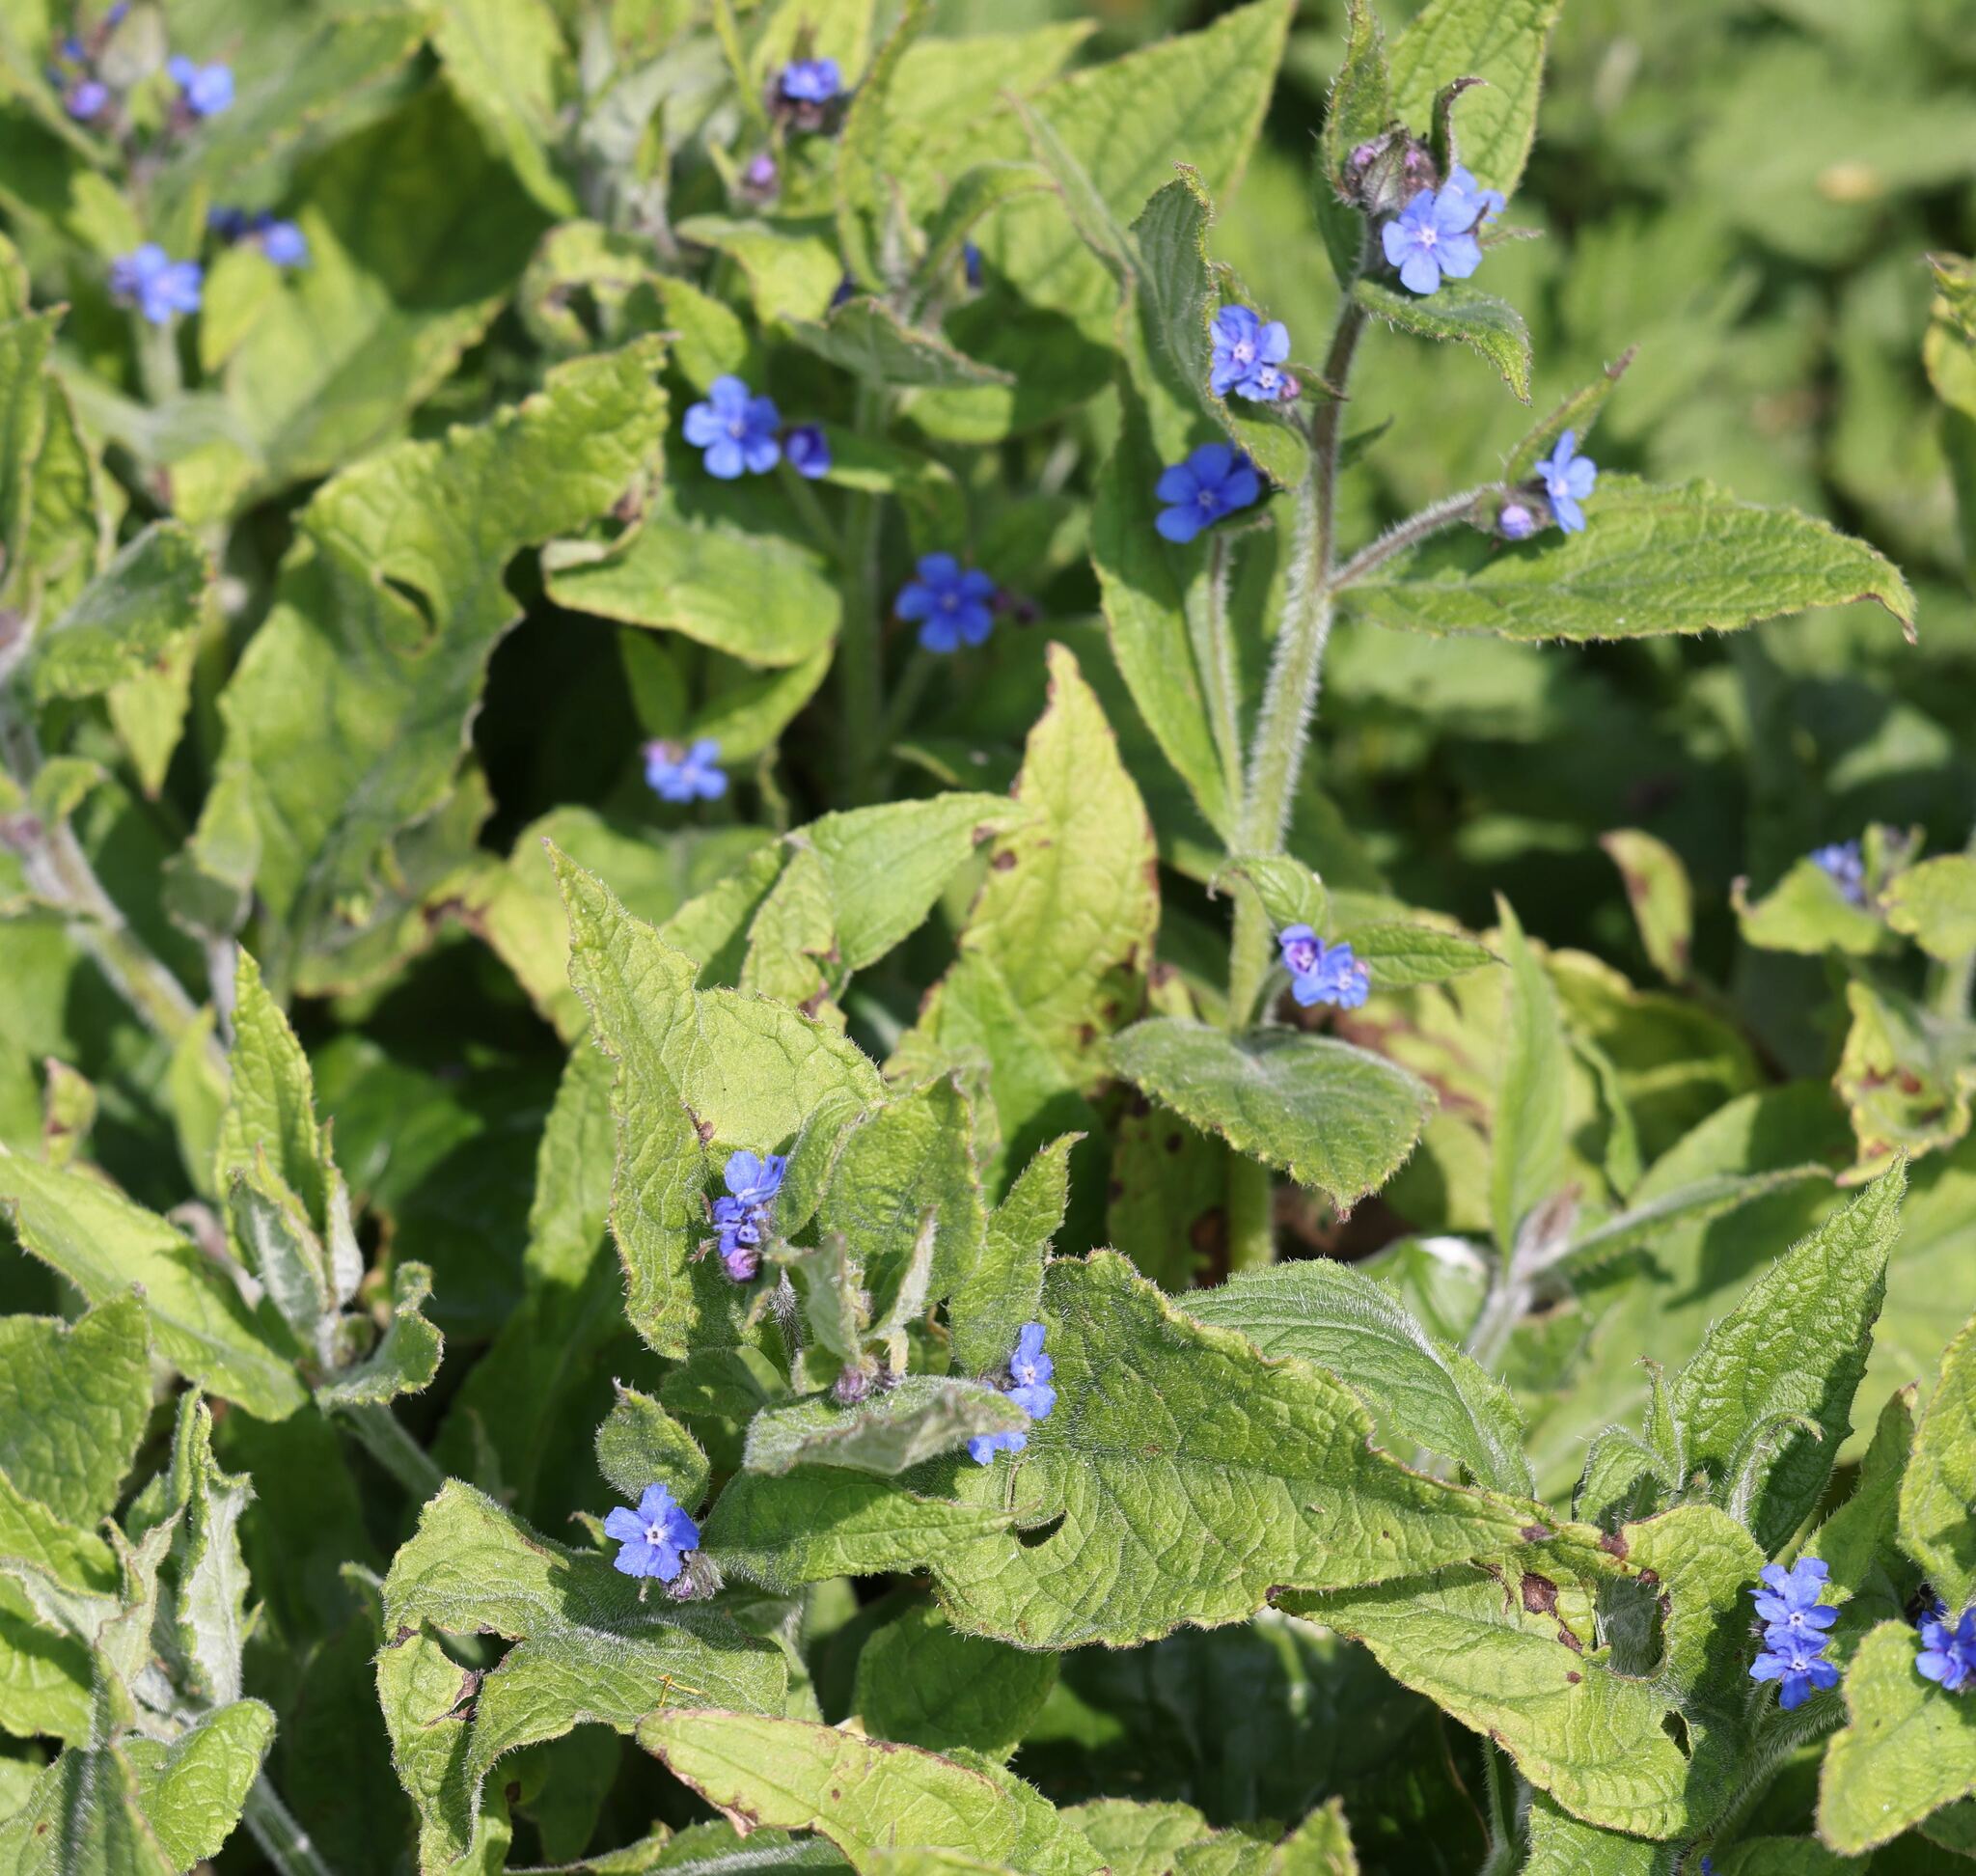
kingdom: Plantae
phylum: Tracheophyta
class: Magnoliopsida
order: Boraginales
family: Boraginaceae
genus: Pentaglottis
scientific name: Pentaglottis sempervirens
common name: Green alkanet
